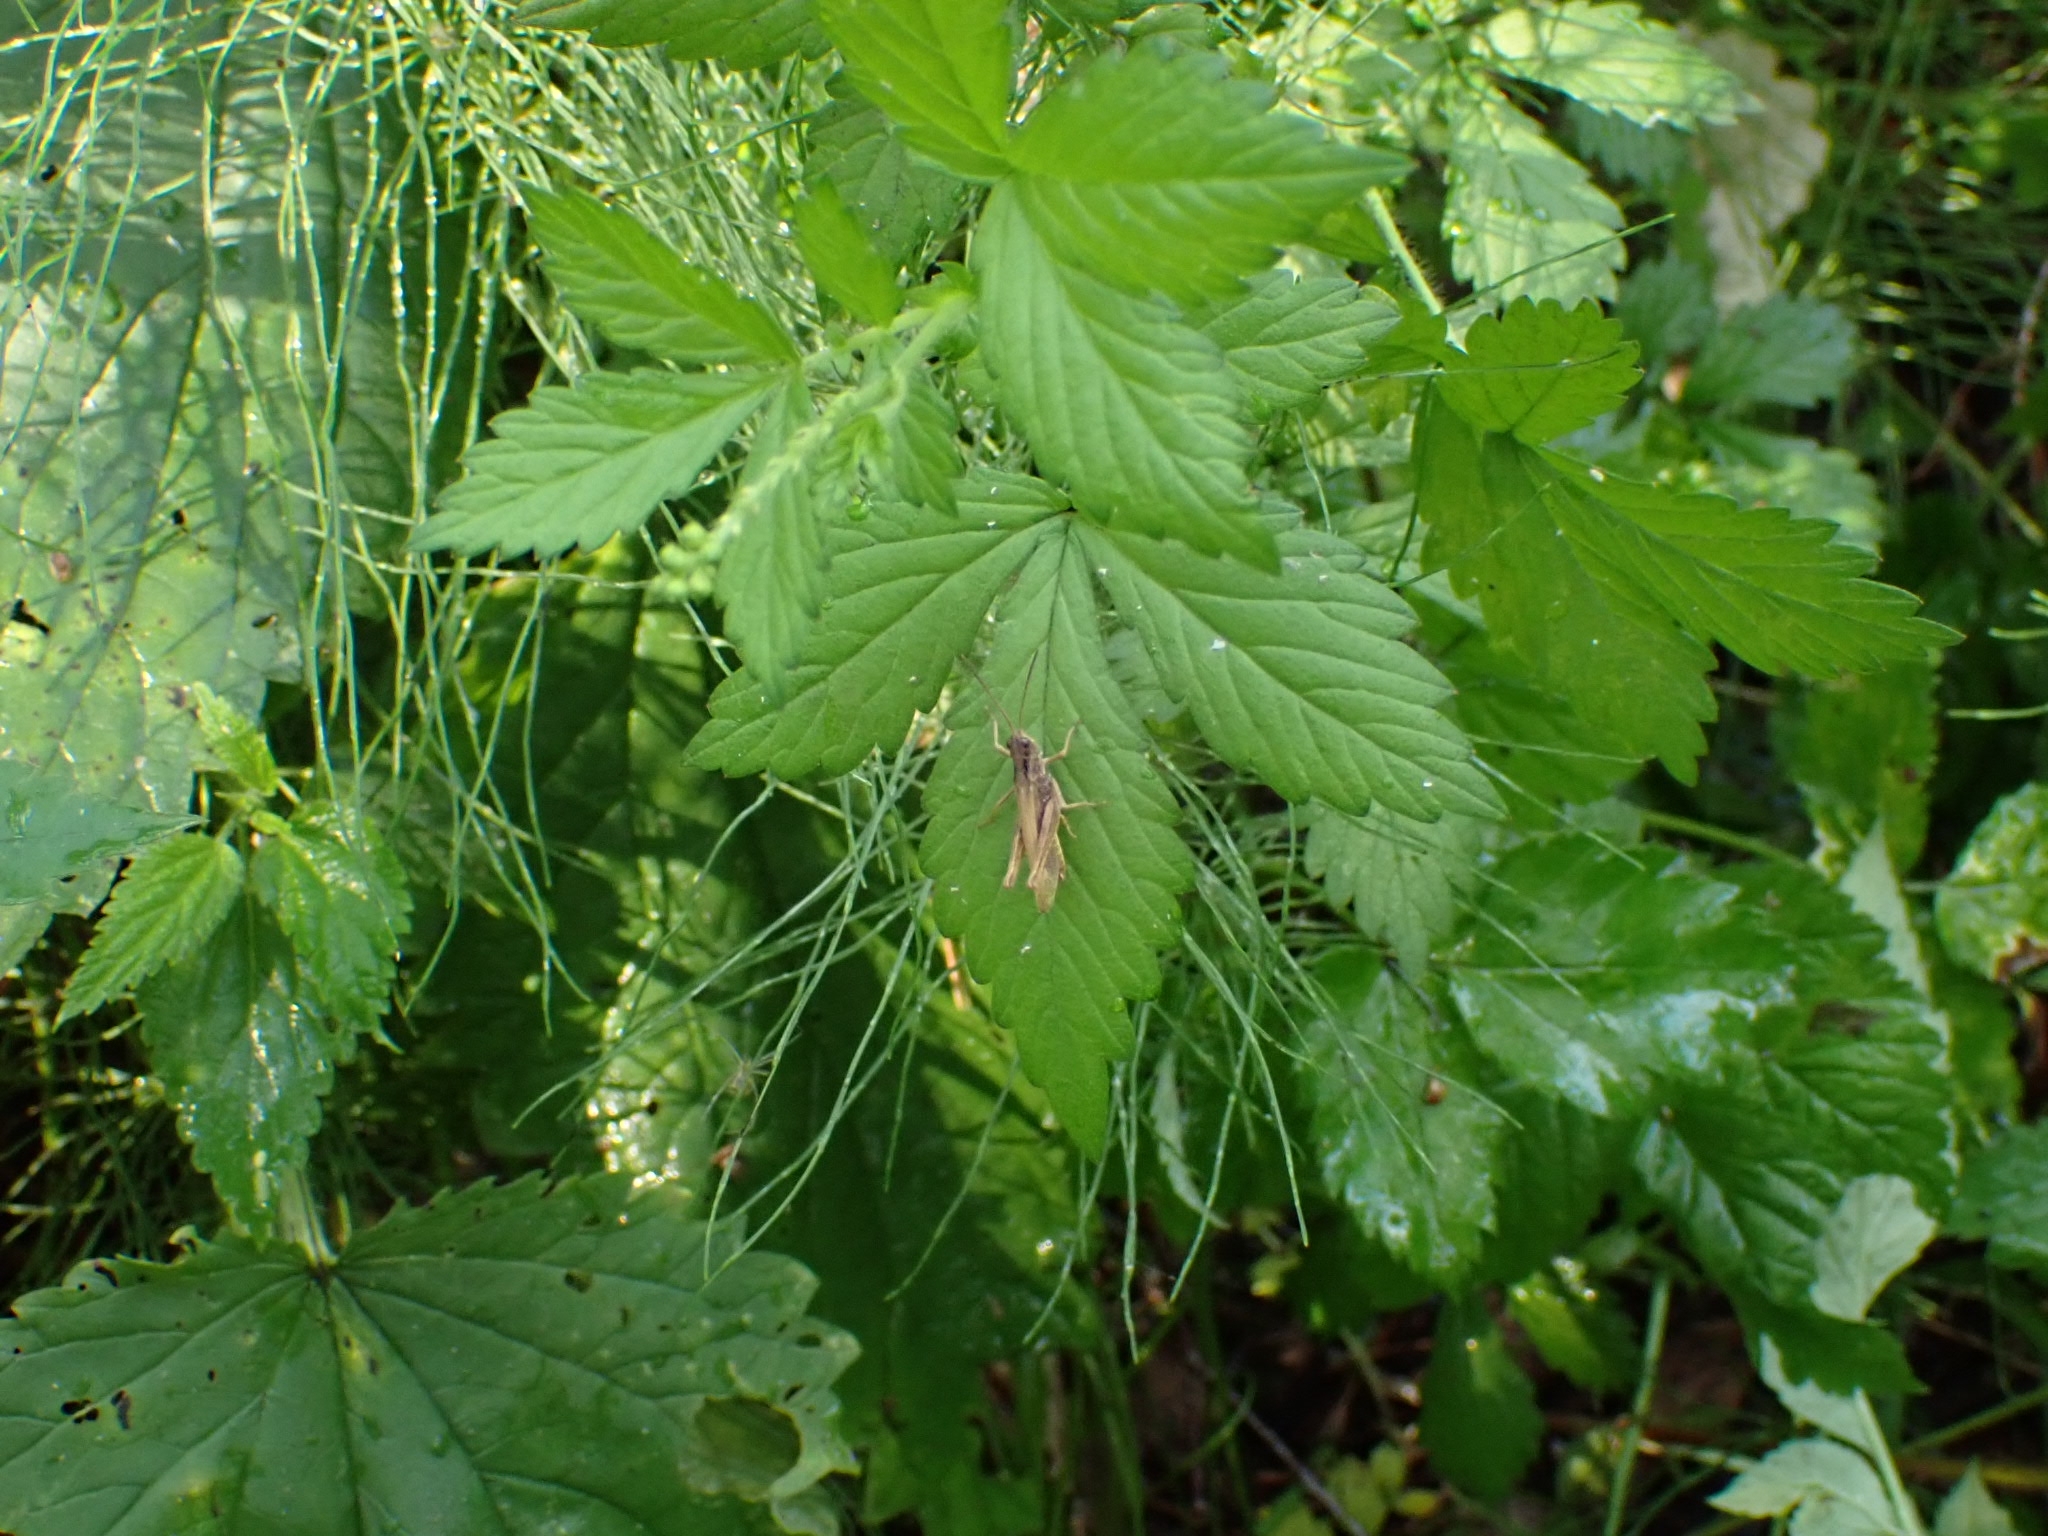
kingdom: Animalia
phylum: Arthropoda
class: Insecta
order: Orthoptera
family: Acrididae
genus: Chorthippus
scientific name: Chorthippus apricarius
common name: Upland field grasshopper
